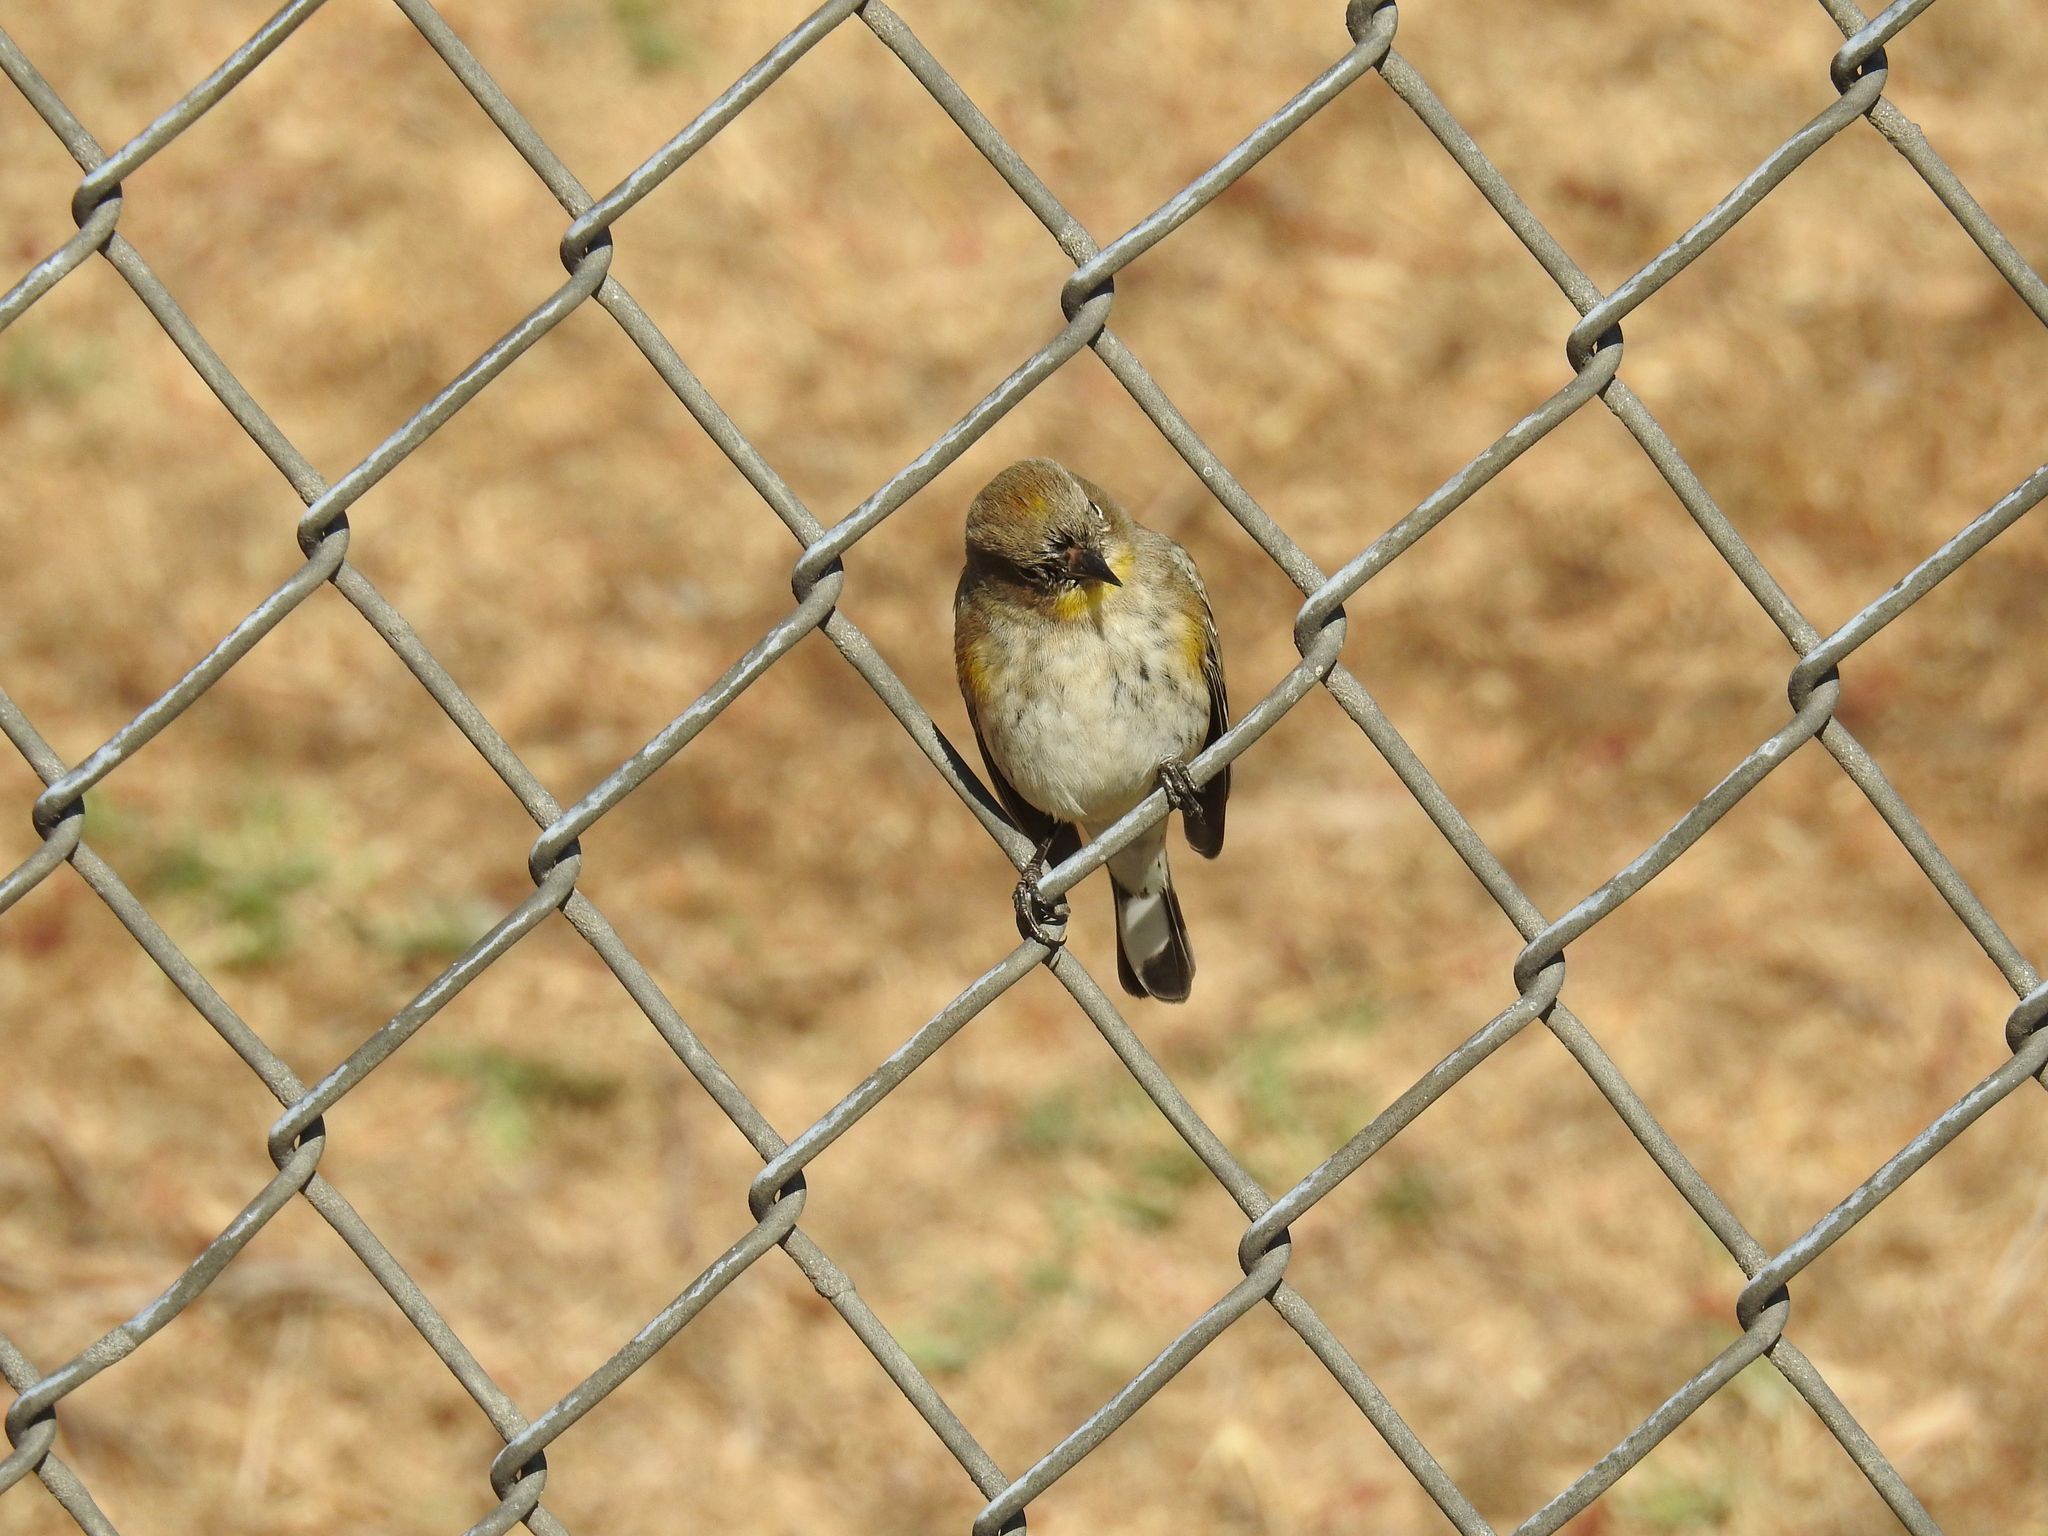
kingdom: Animalia
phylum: Chordata
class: Aves
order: Passeriformes
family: Parulidae
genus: Setophaga
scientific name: Setophaga auduboni
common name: Audubon's warbler
